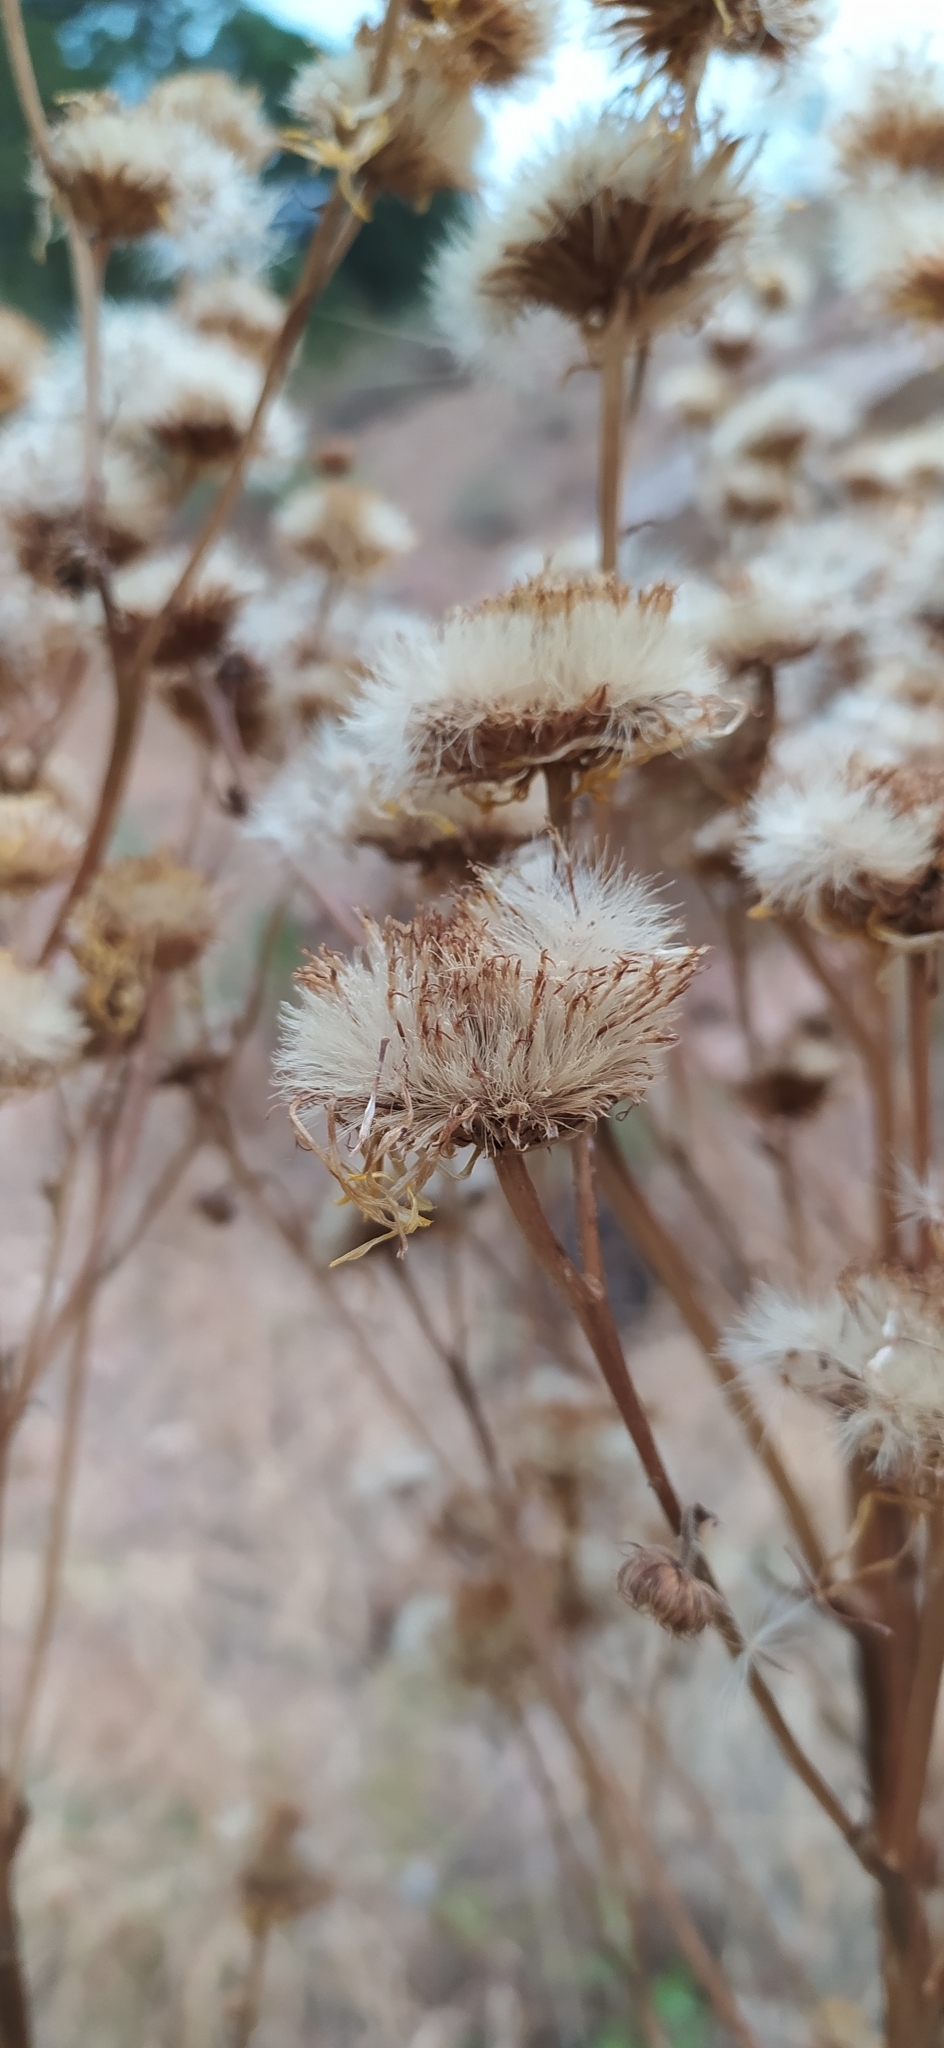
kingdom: Plantae
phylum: Tracheophyta
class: Magnoliopsida
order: Asterales
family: Asteraceae
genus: Inula
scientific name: Inula grandis
